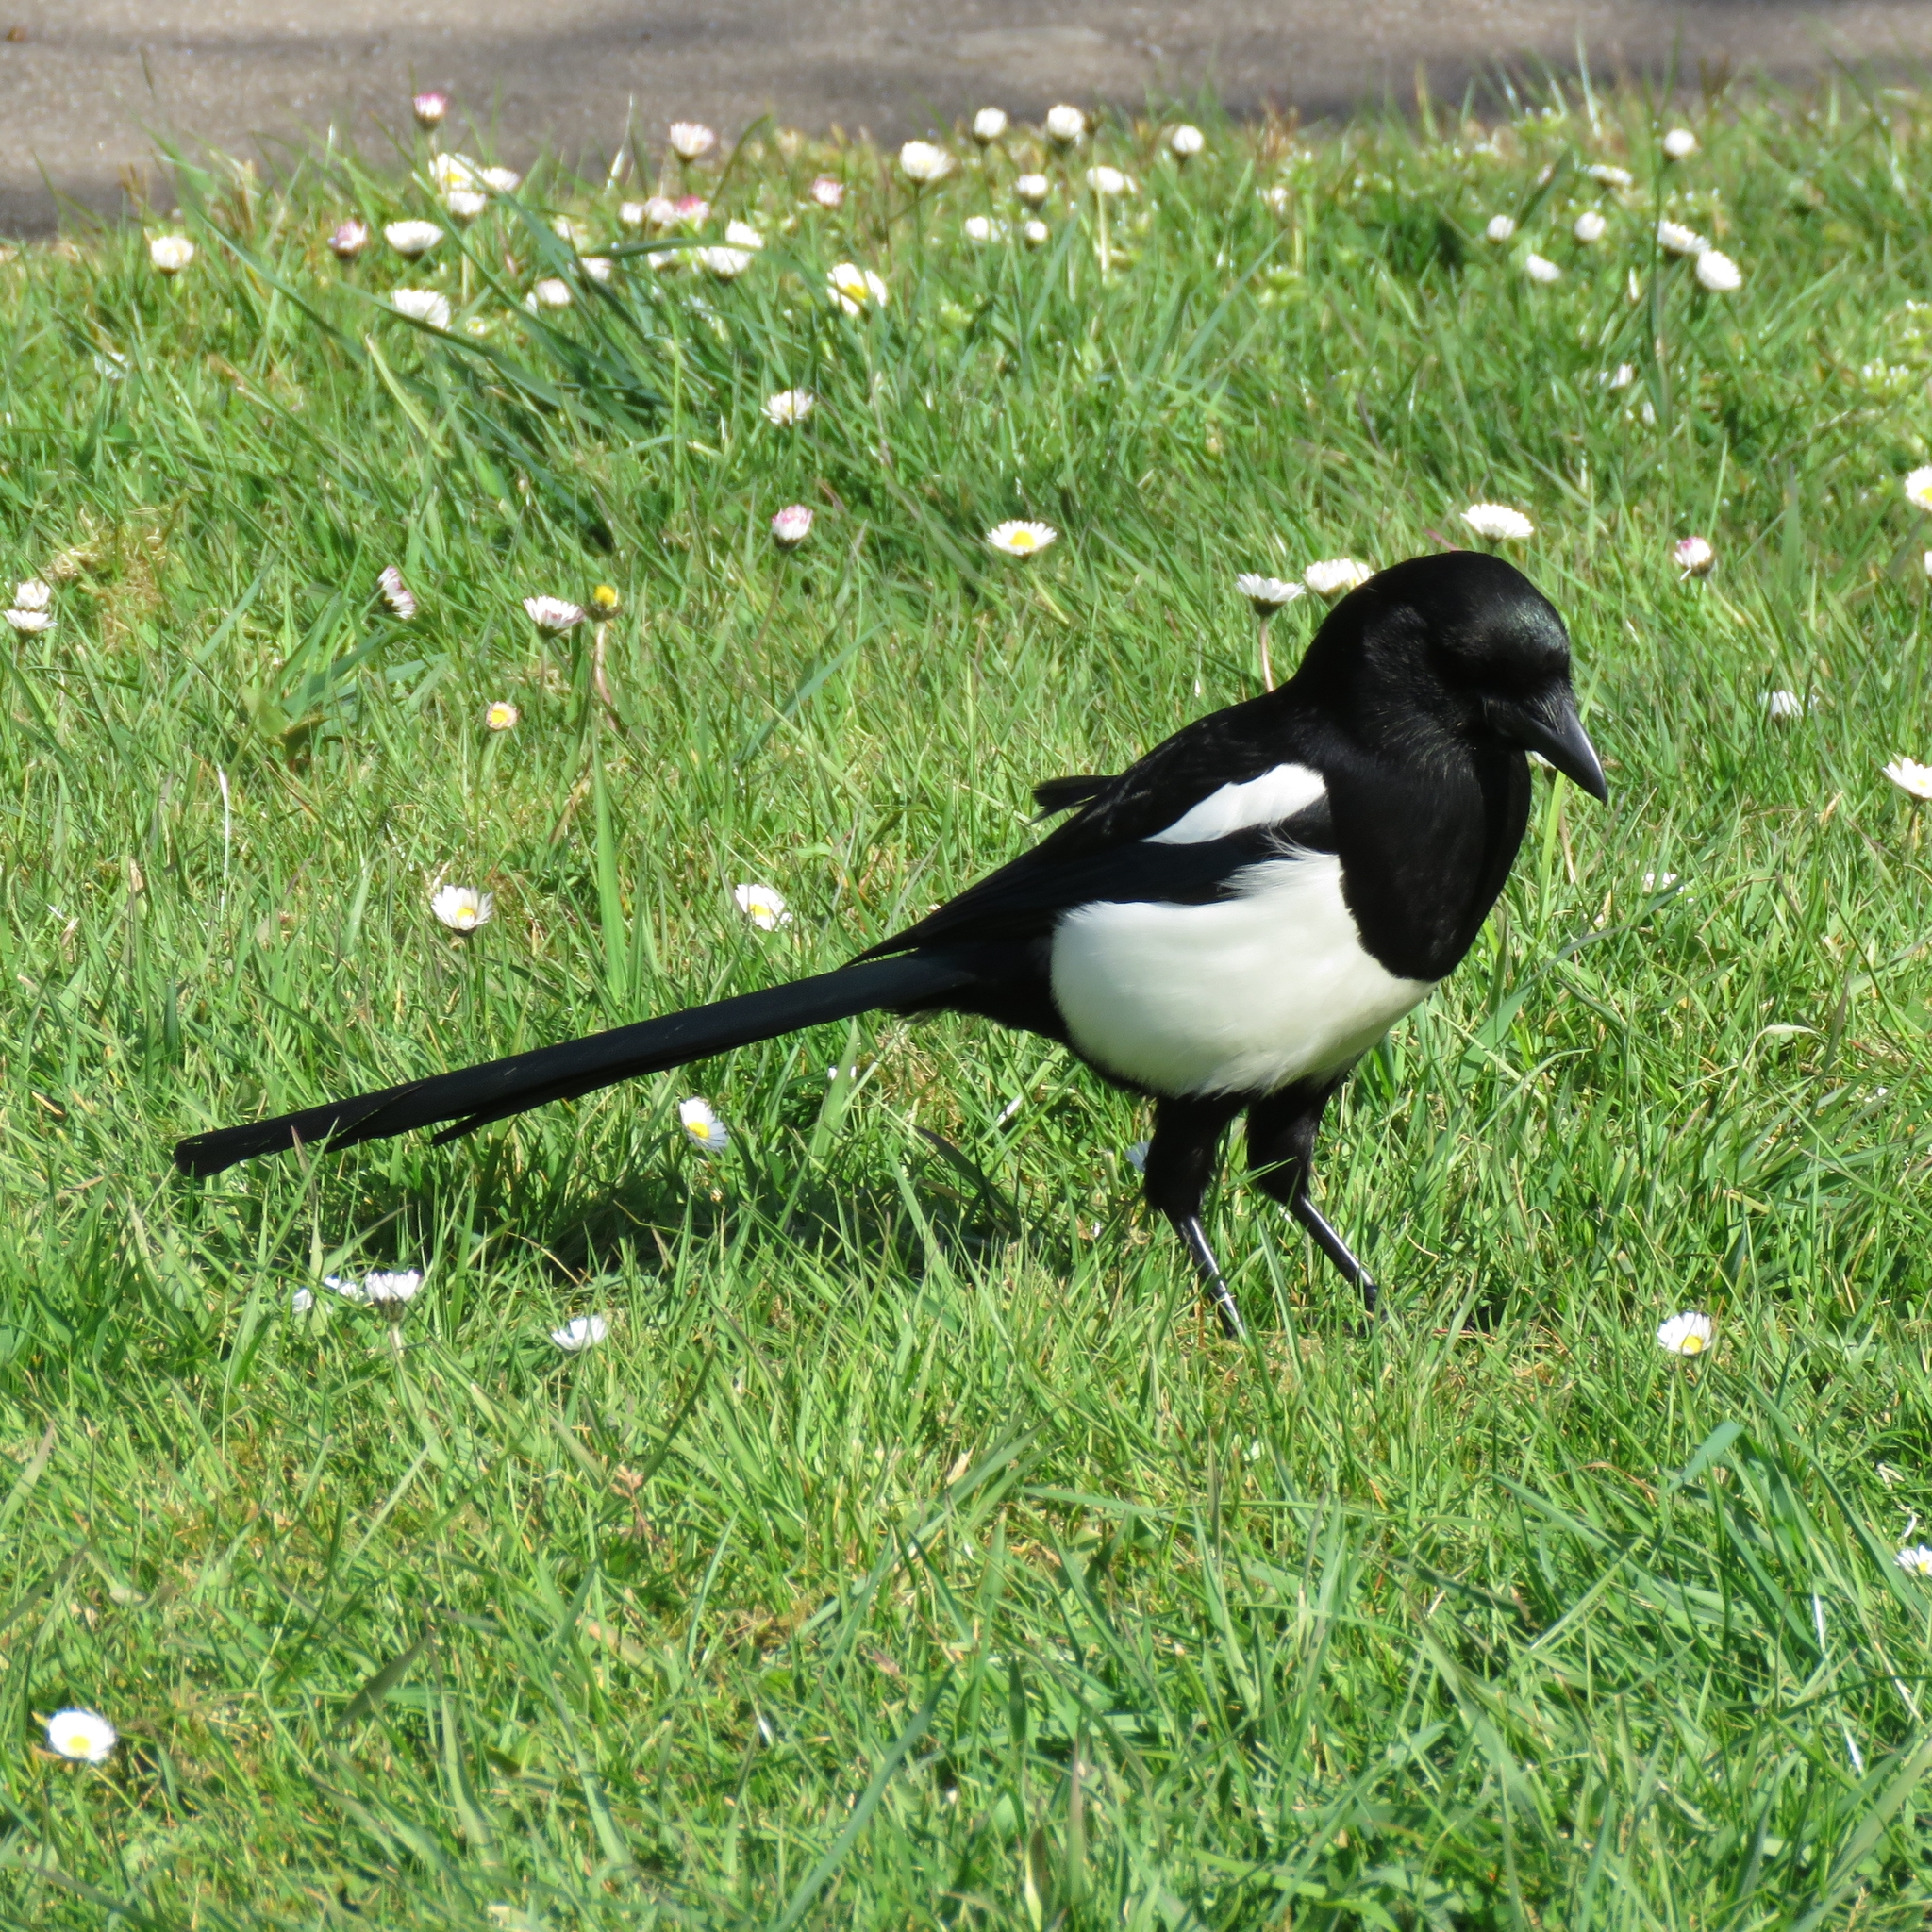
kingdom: Animalia
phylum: Chordata
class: Aves
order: Passeriformes
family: Corvidae
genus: Pica
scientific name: Pica pica
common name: Eurasian magpie
